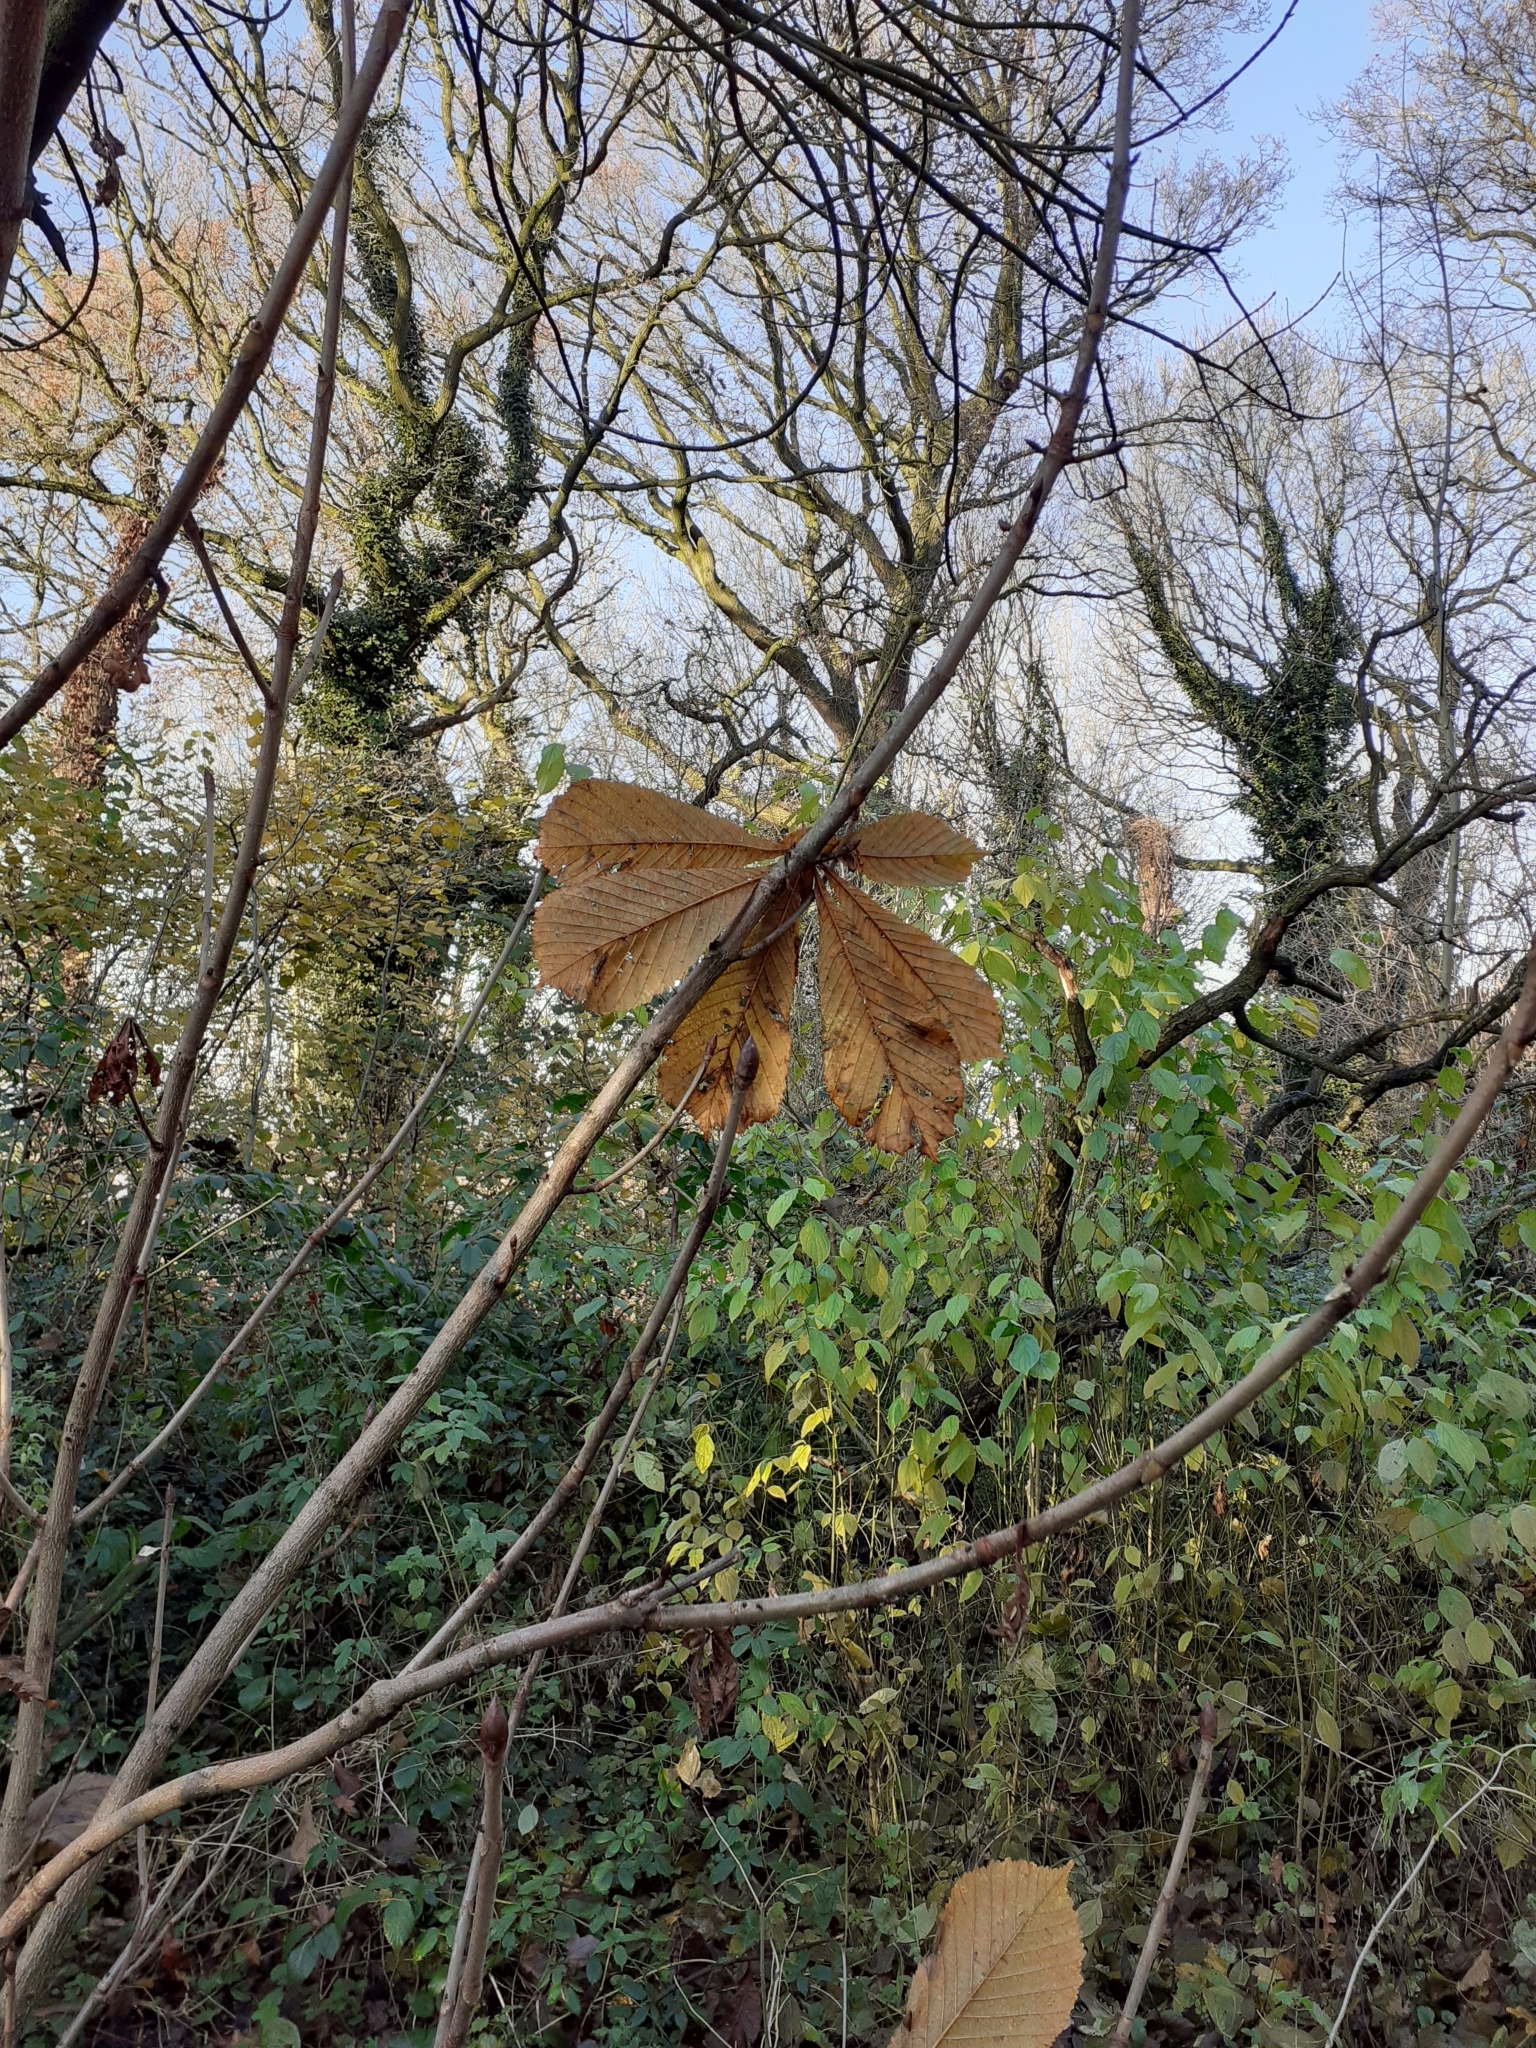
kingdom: Plantae
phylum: Tracheophyta
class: Magnoliopsida
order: Sapindales
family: Sapindaceae
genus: Aesculus
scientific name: Aesculus hippocastanum
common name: Horse-chestnut
